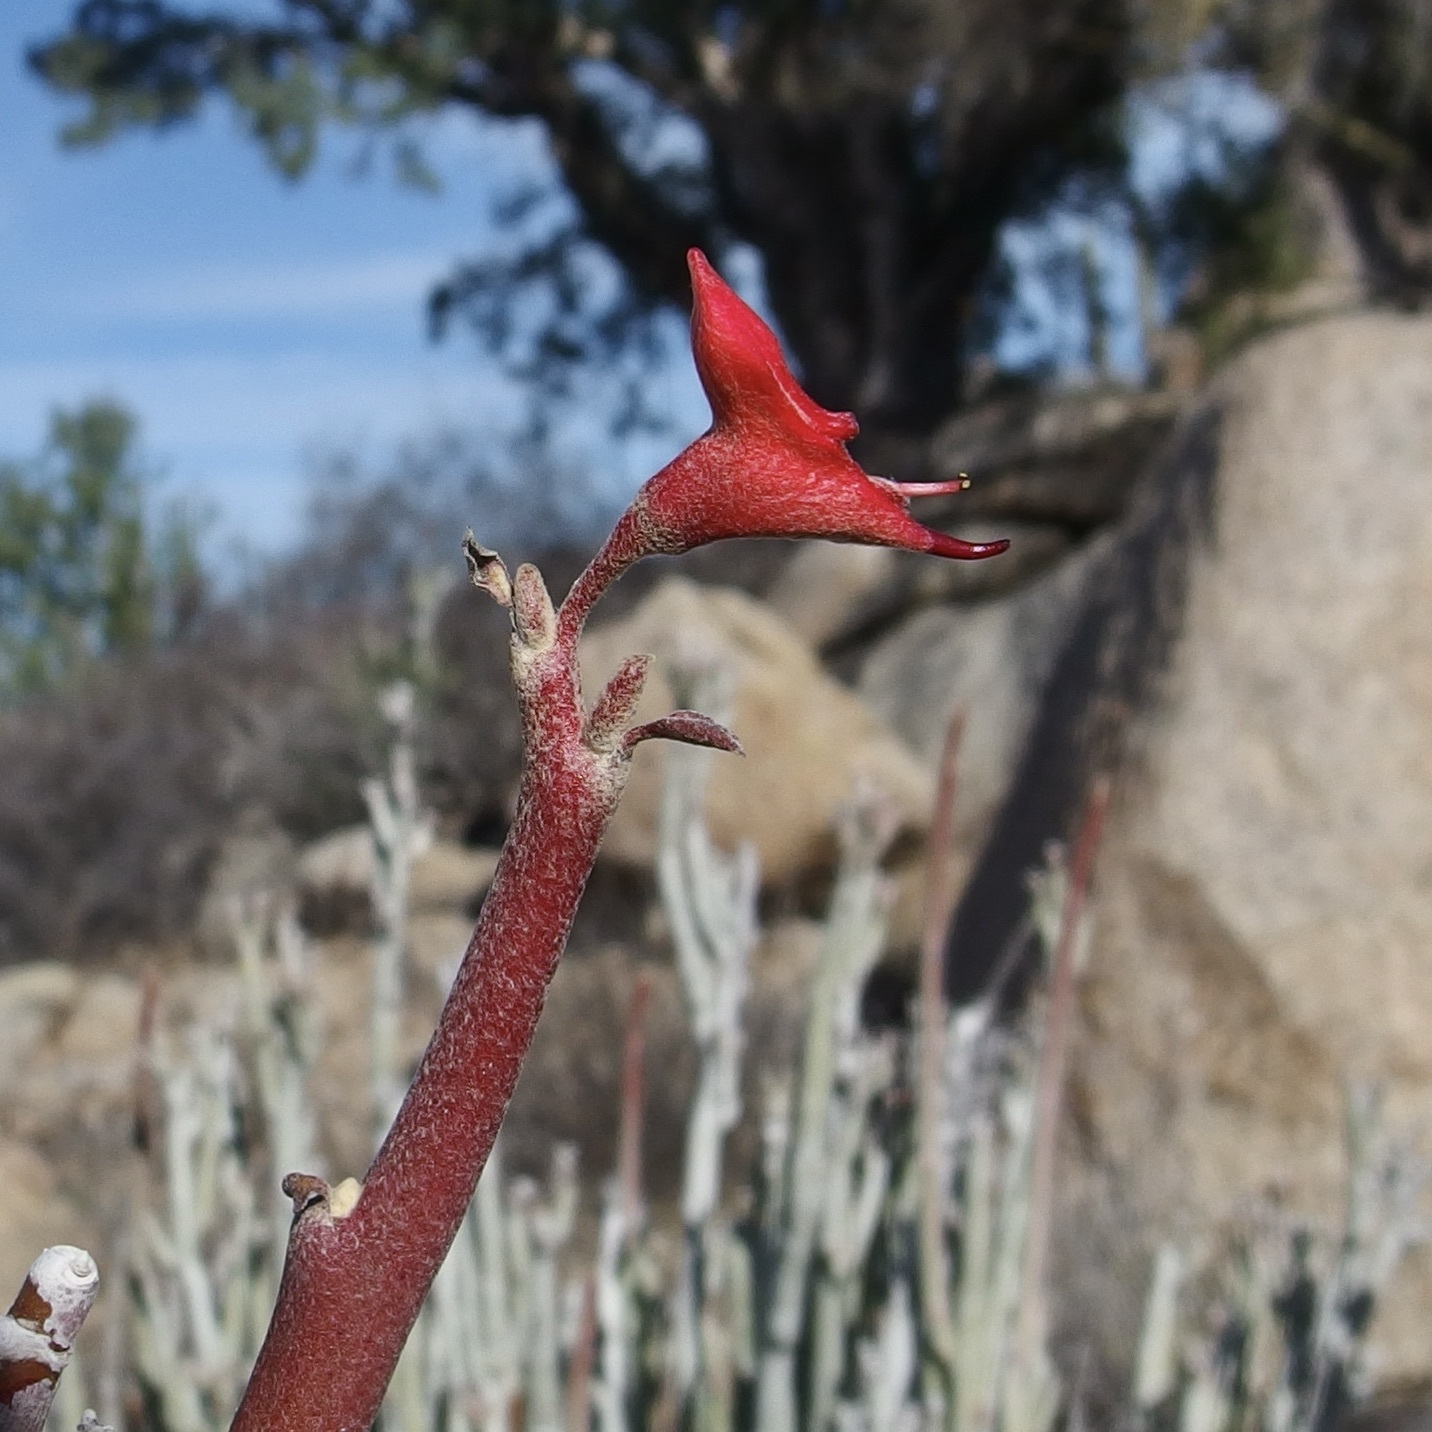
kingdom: Plantae
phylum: Tracheophyta
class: Magnoliopsida
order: Malpighiales
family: Euphorbiaceae
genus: Euphorbia
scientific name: Euphorbia lomelii
